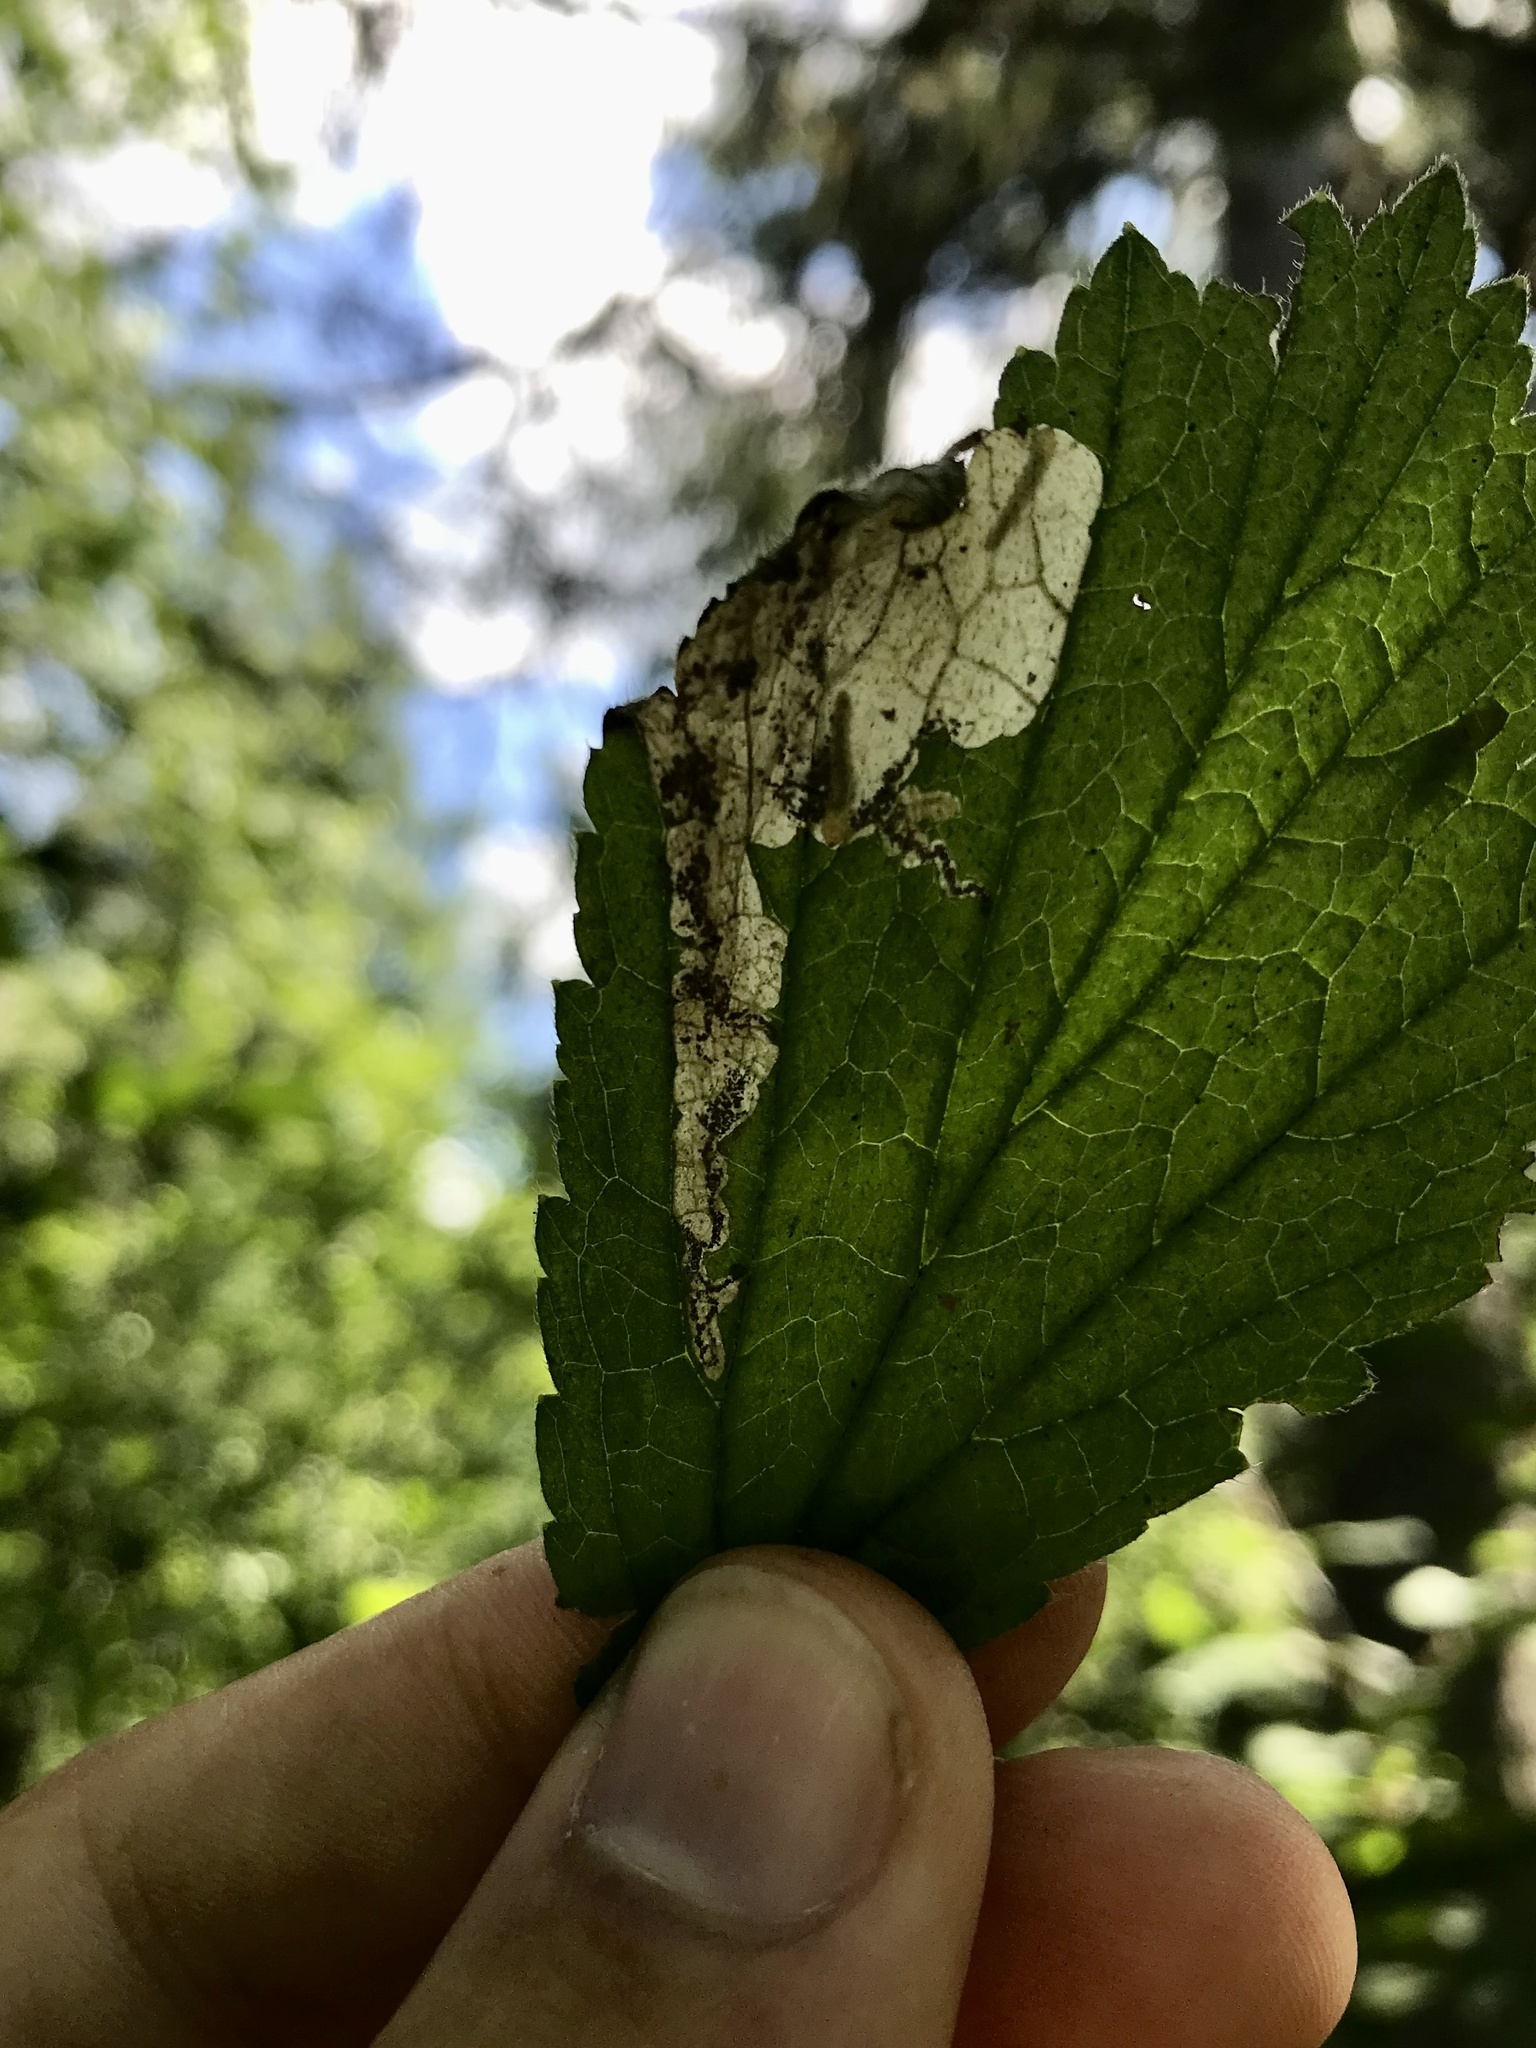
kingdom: Animalia
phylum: Arthropoda
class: Insecta
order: Hymenoptera
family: Tenthredinidae
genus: Metallus
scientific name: Metallus lanceolatus
